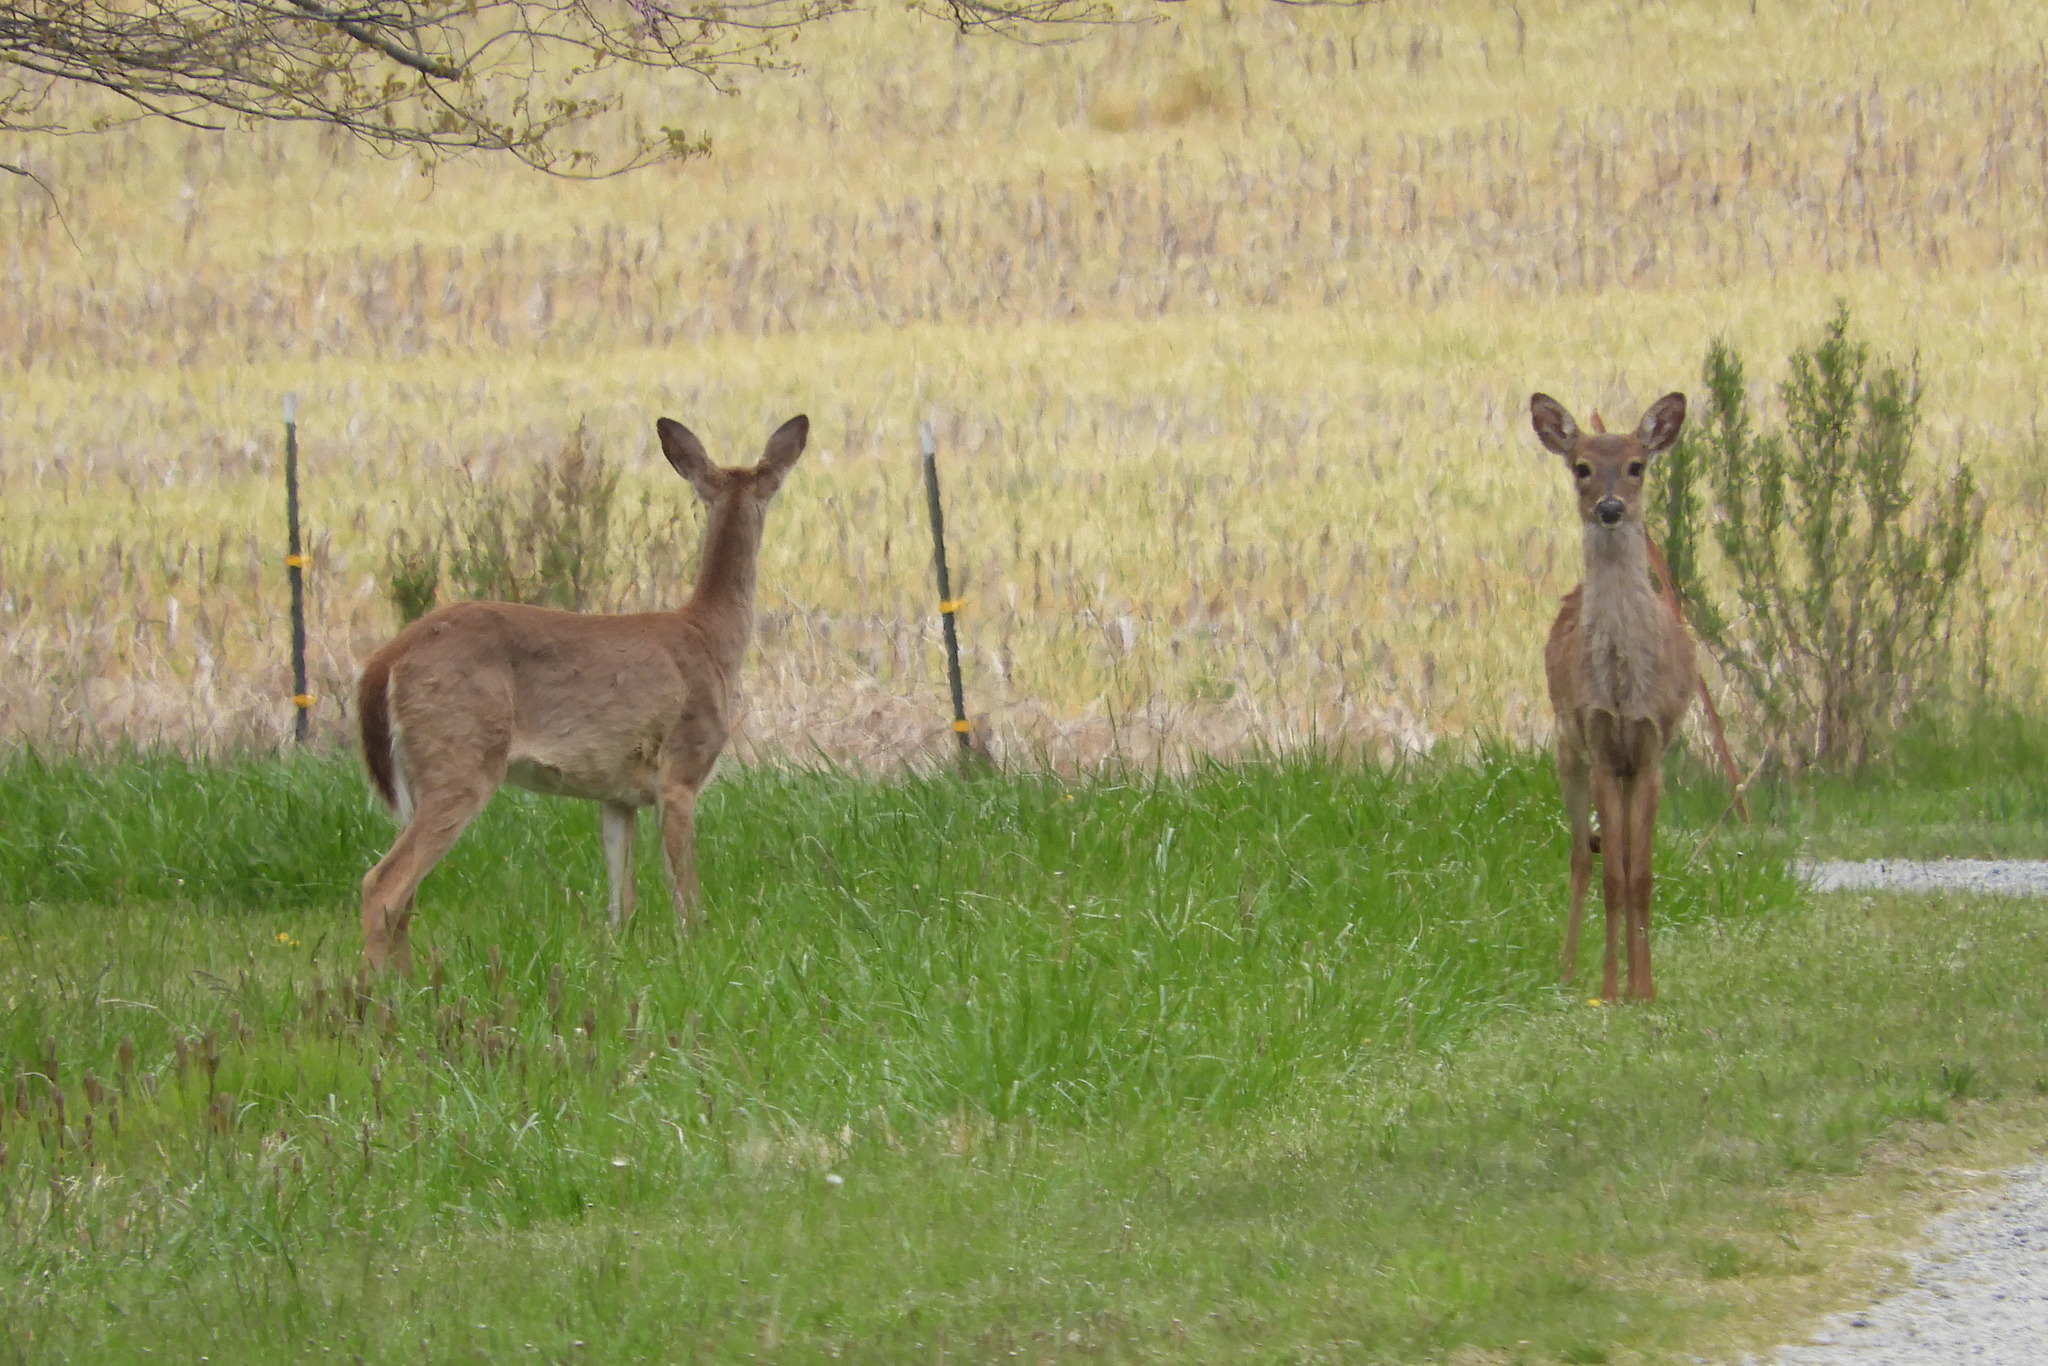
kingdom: Animalia
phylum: Chordata
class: Mammalia
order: Artiodactyla
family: Cervidae
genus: Odocoileus
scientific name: Odocoileus virginianus
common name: White-tailed deer
